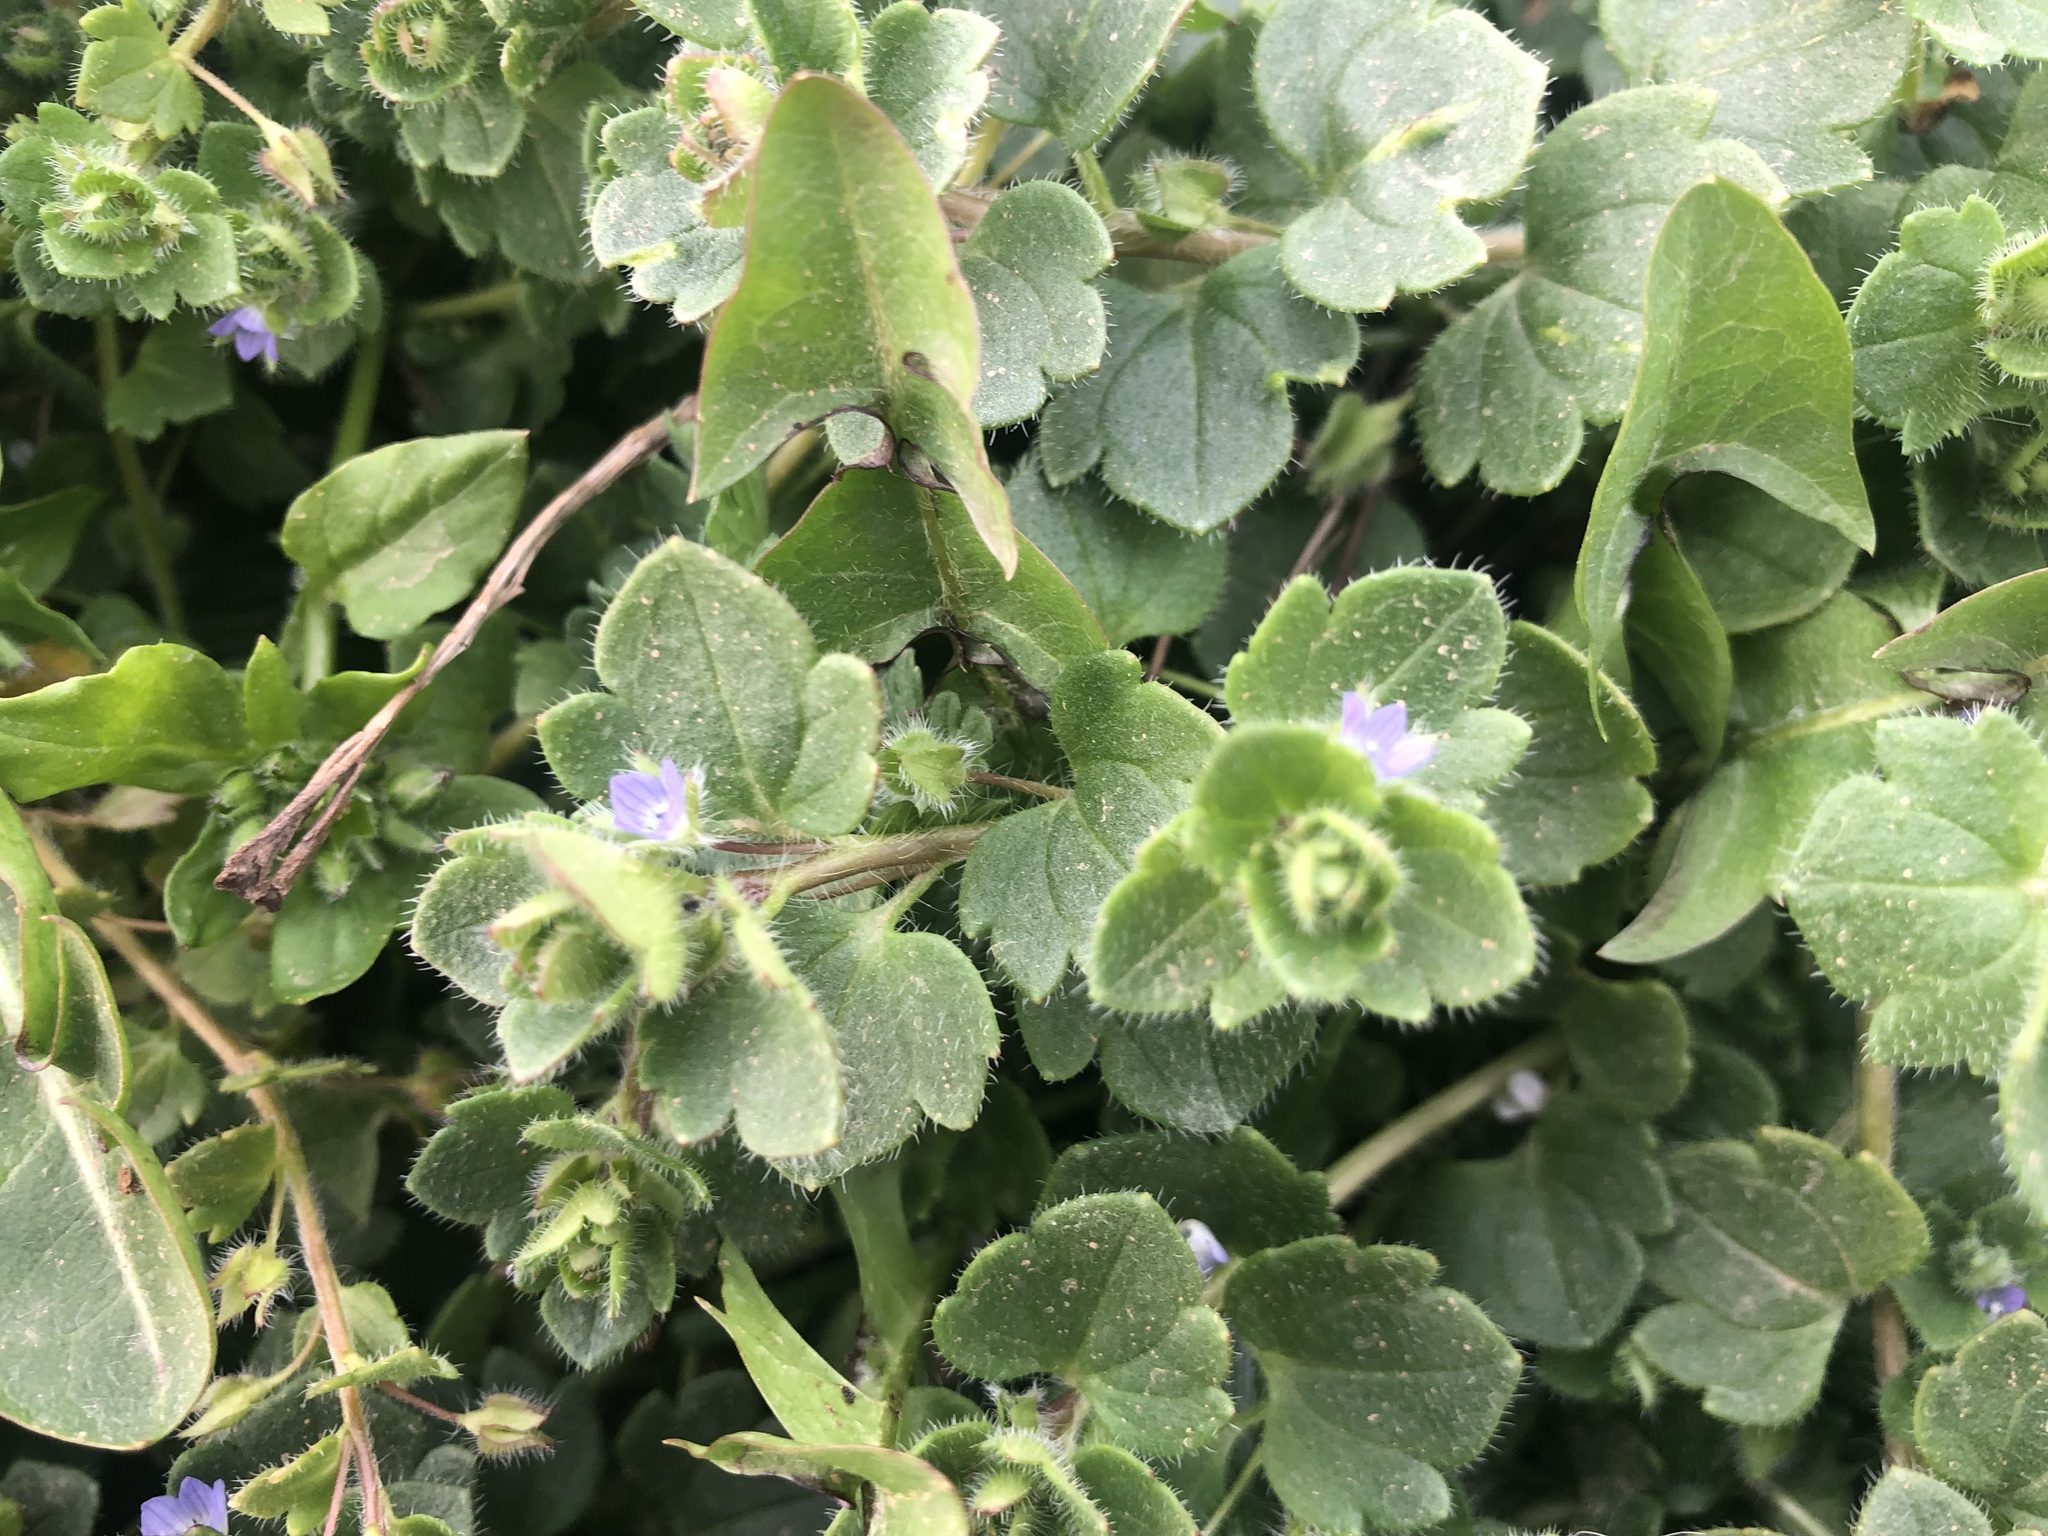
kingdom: Plantae
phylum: Tracheophyta
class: Magnoliopsida
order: Lamiales
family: Plantaginaceae
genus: Veronica
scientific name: Veronica hederifolia
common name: Ivy-leaved speedwell
